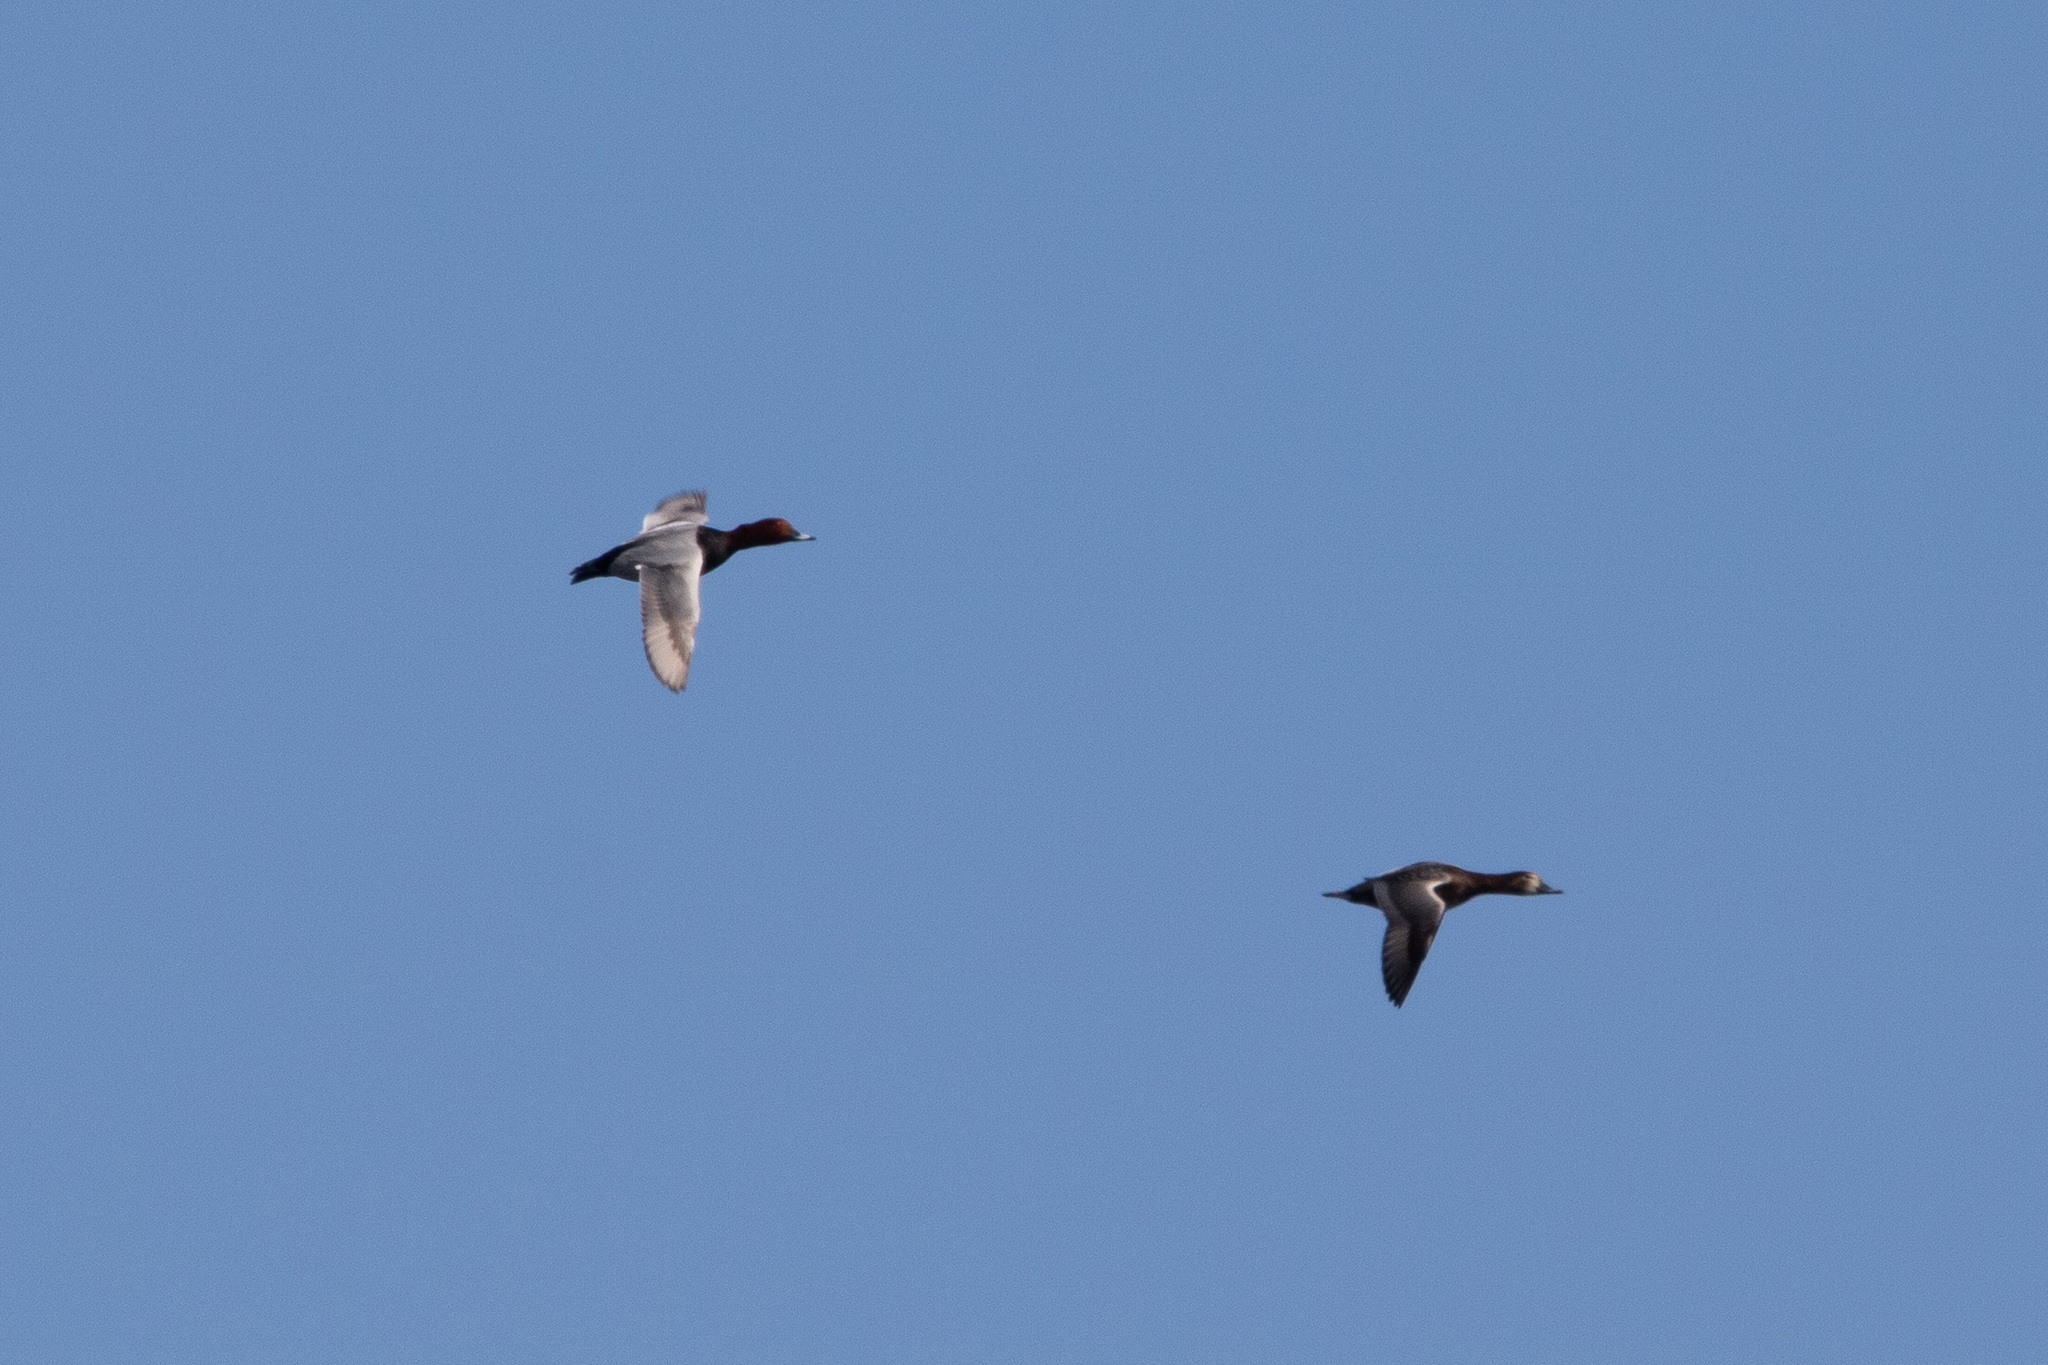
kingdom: Animalia
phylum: Chordata
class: Aves
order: Anseriformes
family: Anatidae
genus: Aythya
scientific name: Aythya ferina
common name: Common pochard
